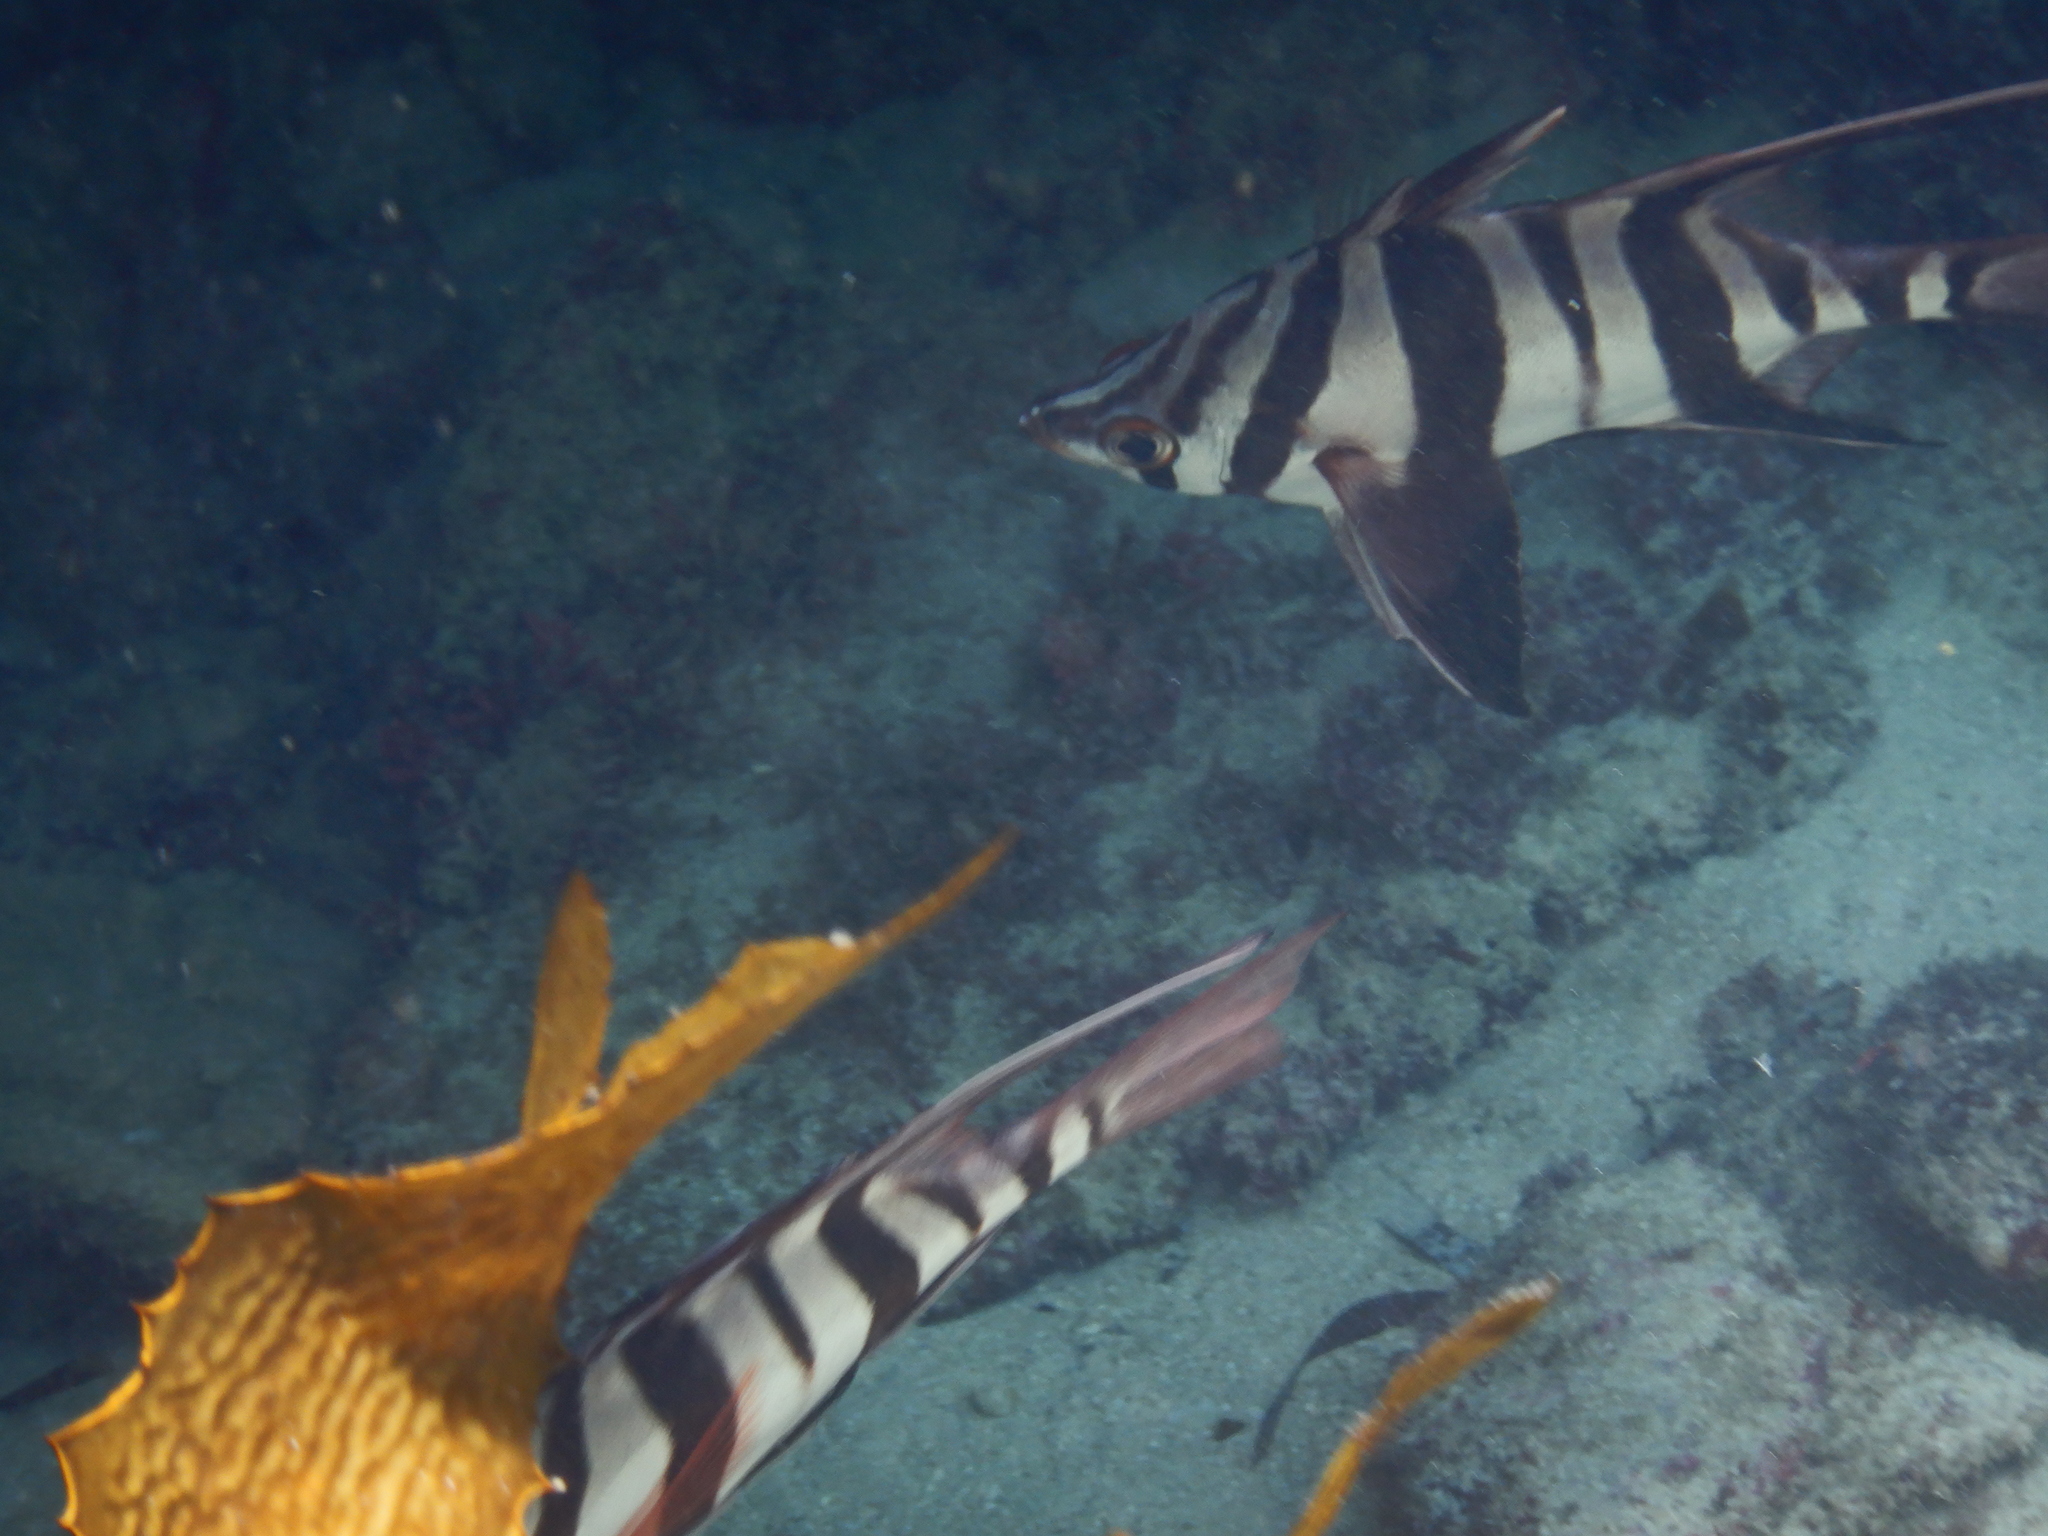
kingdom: Animalia
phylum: Chordata
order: Perciformes
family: Enoplosidae
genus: Enoplosus
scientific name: Enoplosus armatus
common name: Old wife
